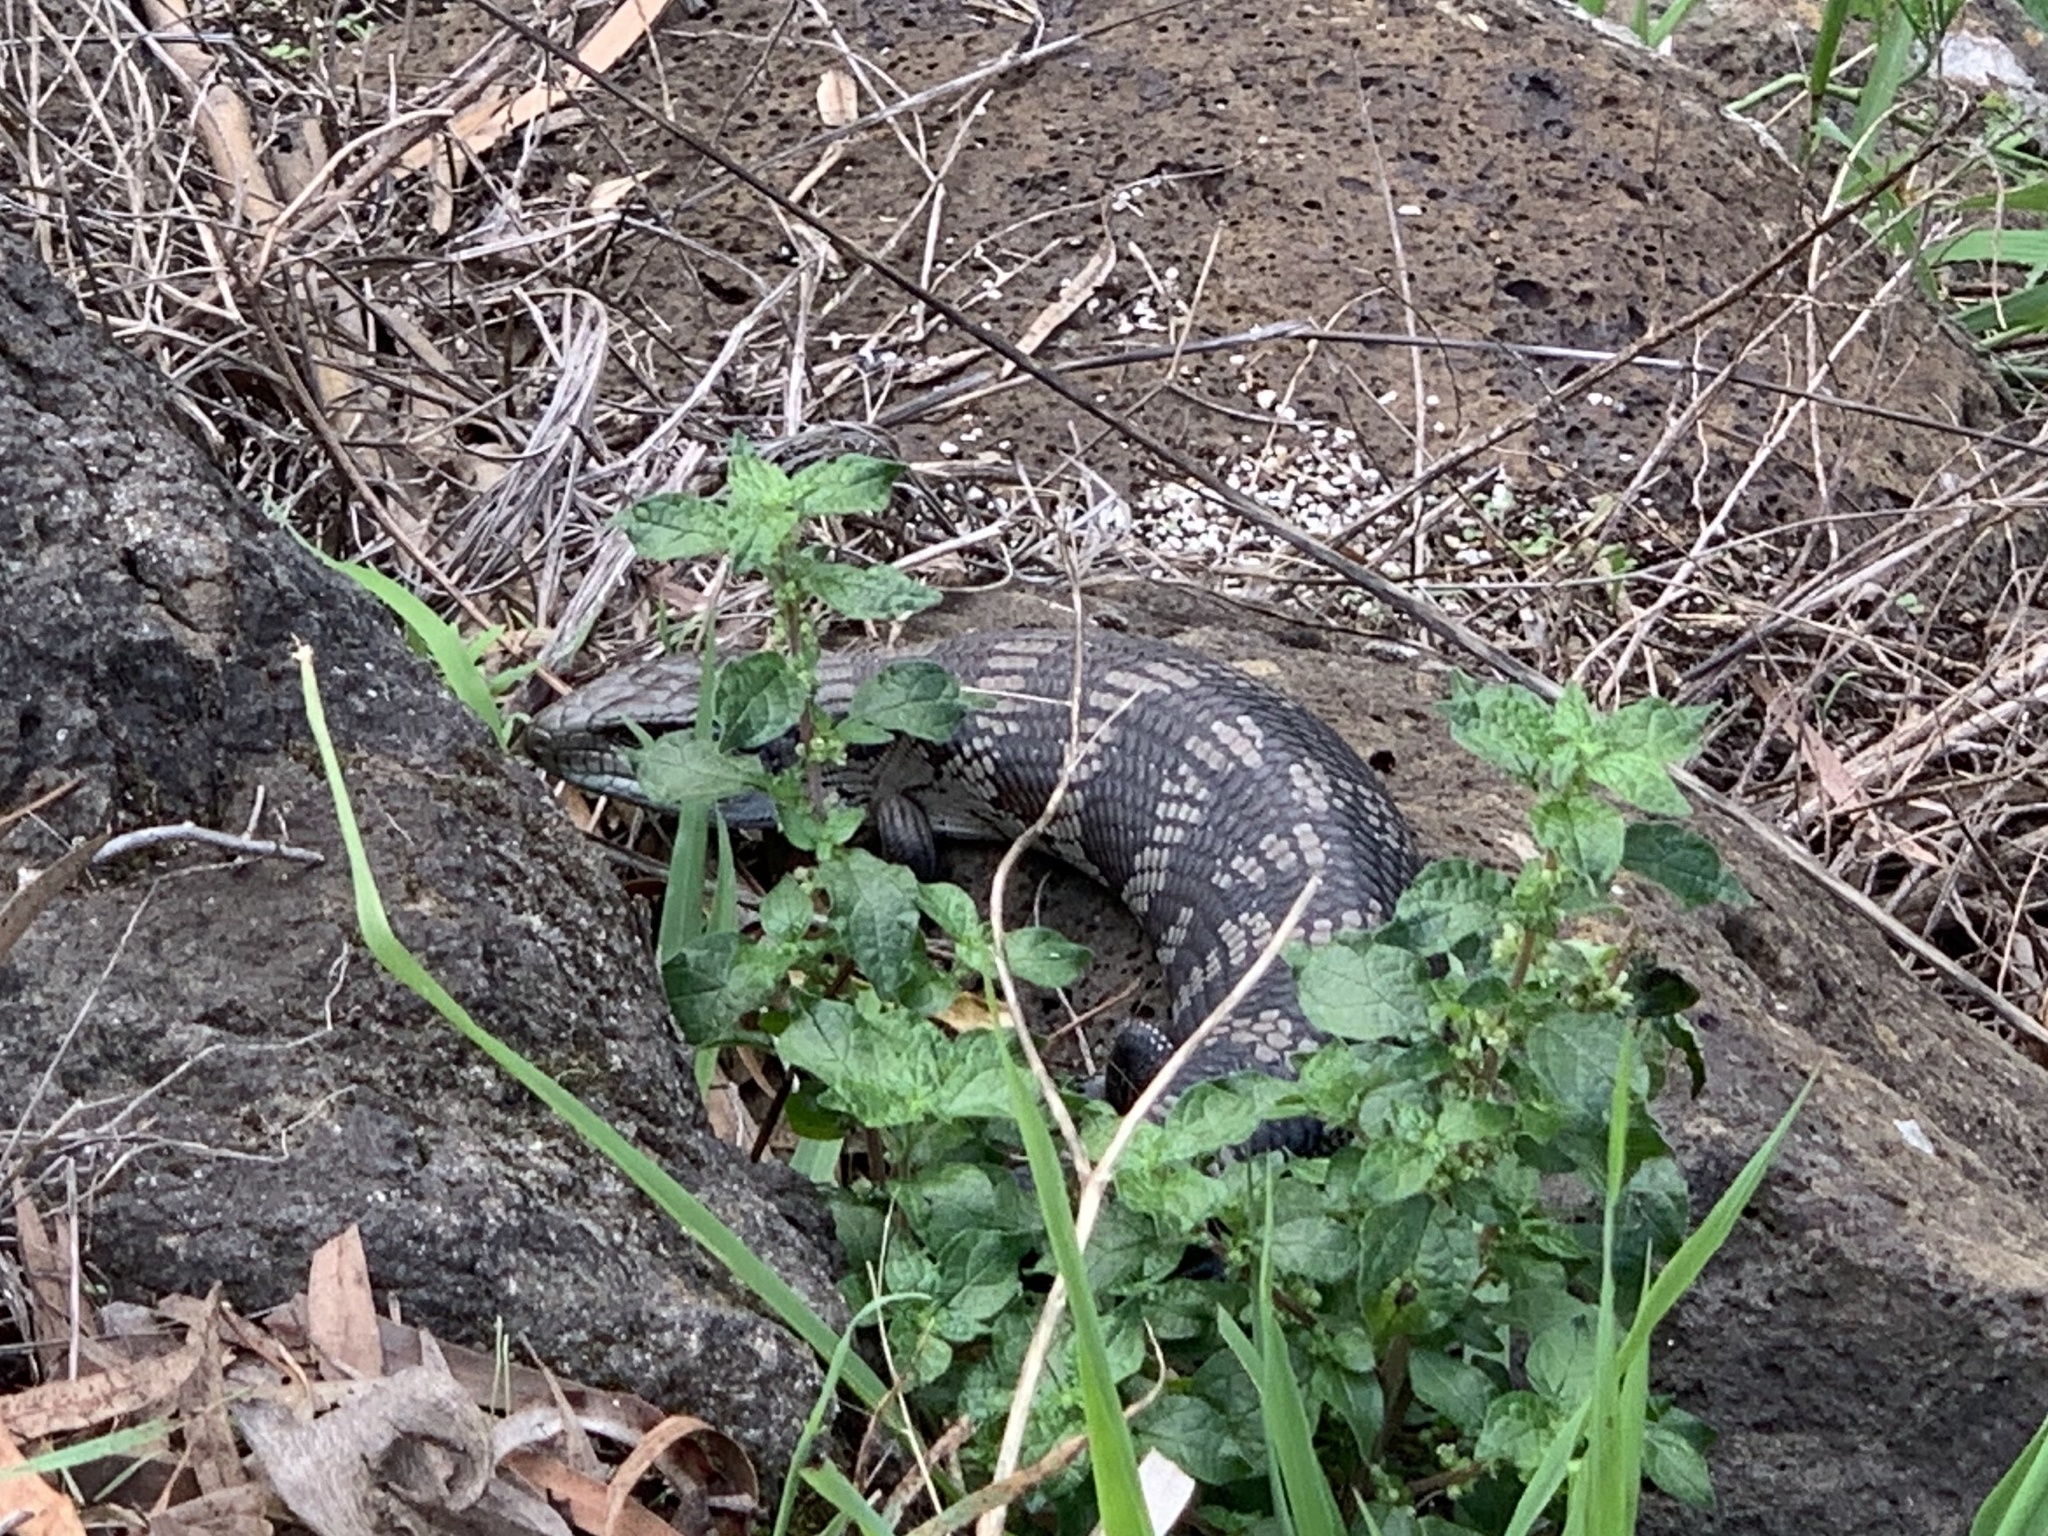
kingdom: Animalia
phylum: Chordata
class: Squamata
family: Scincidae
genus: Tiliqua
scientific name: Tiliqua scincoides
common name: Common bluetongue
